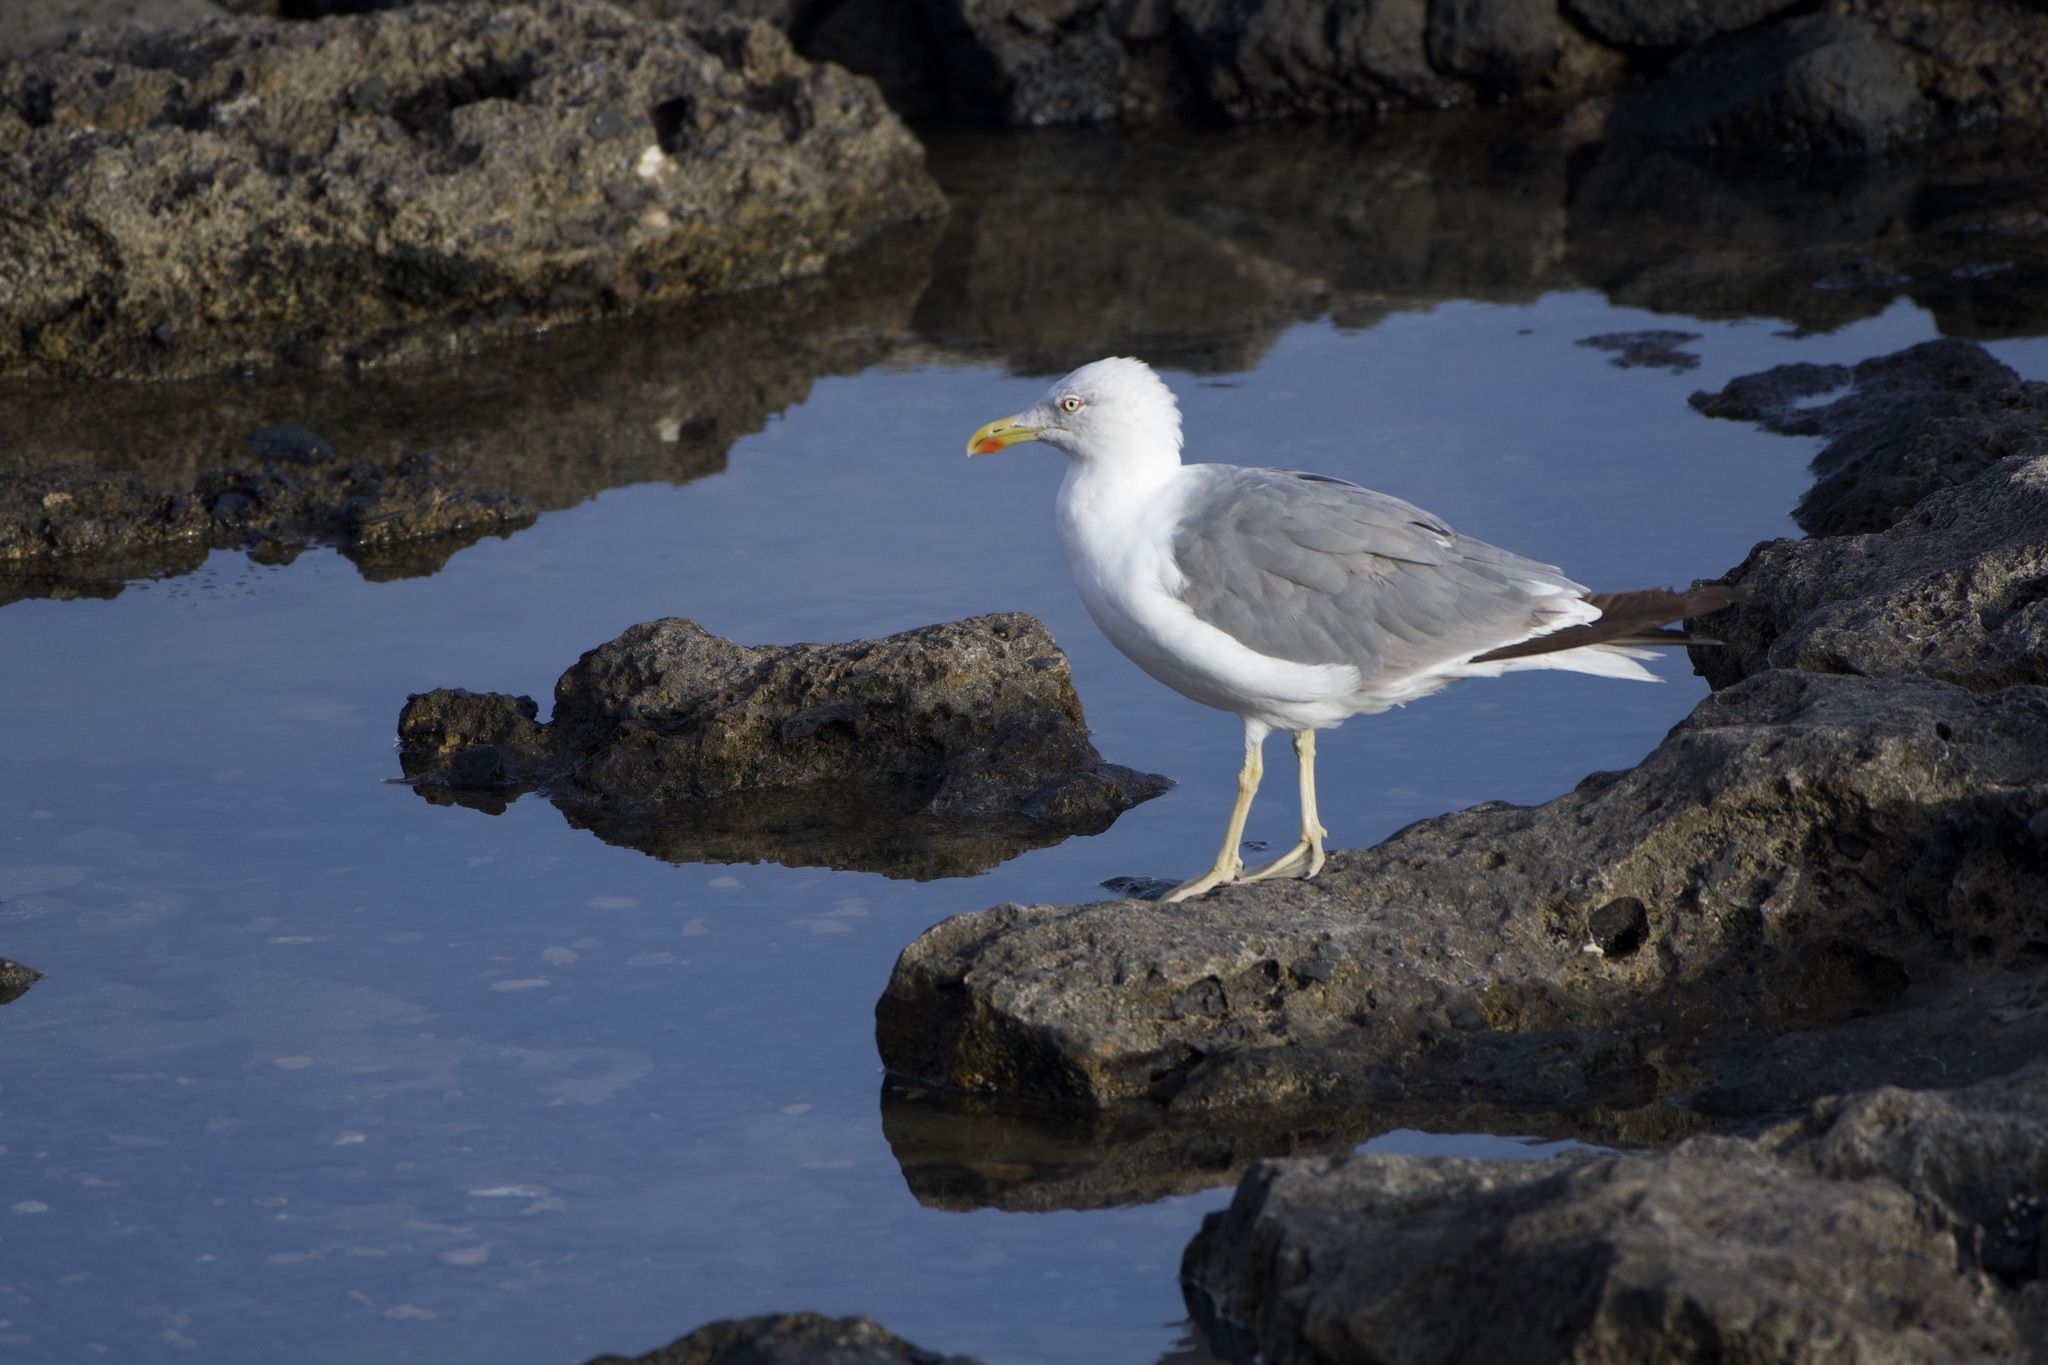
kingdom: Animalia
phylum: Chordata
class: Aves
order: Charadriiformes
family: Laridae
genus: Larus
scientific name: Larus michahellis
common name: Yellow-legged gull
